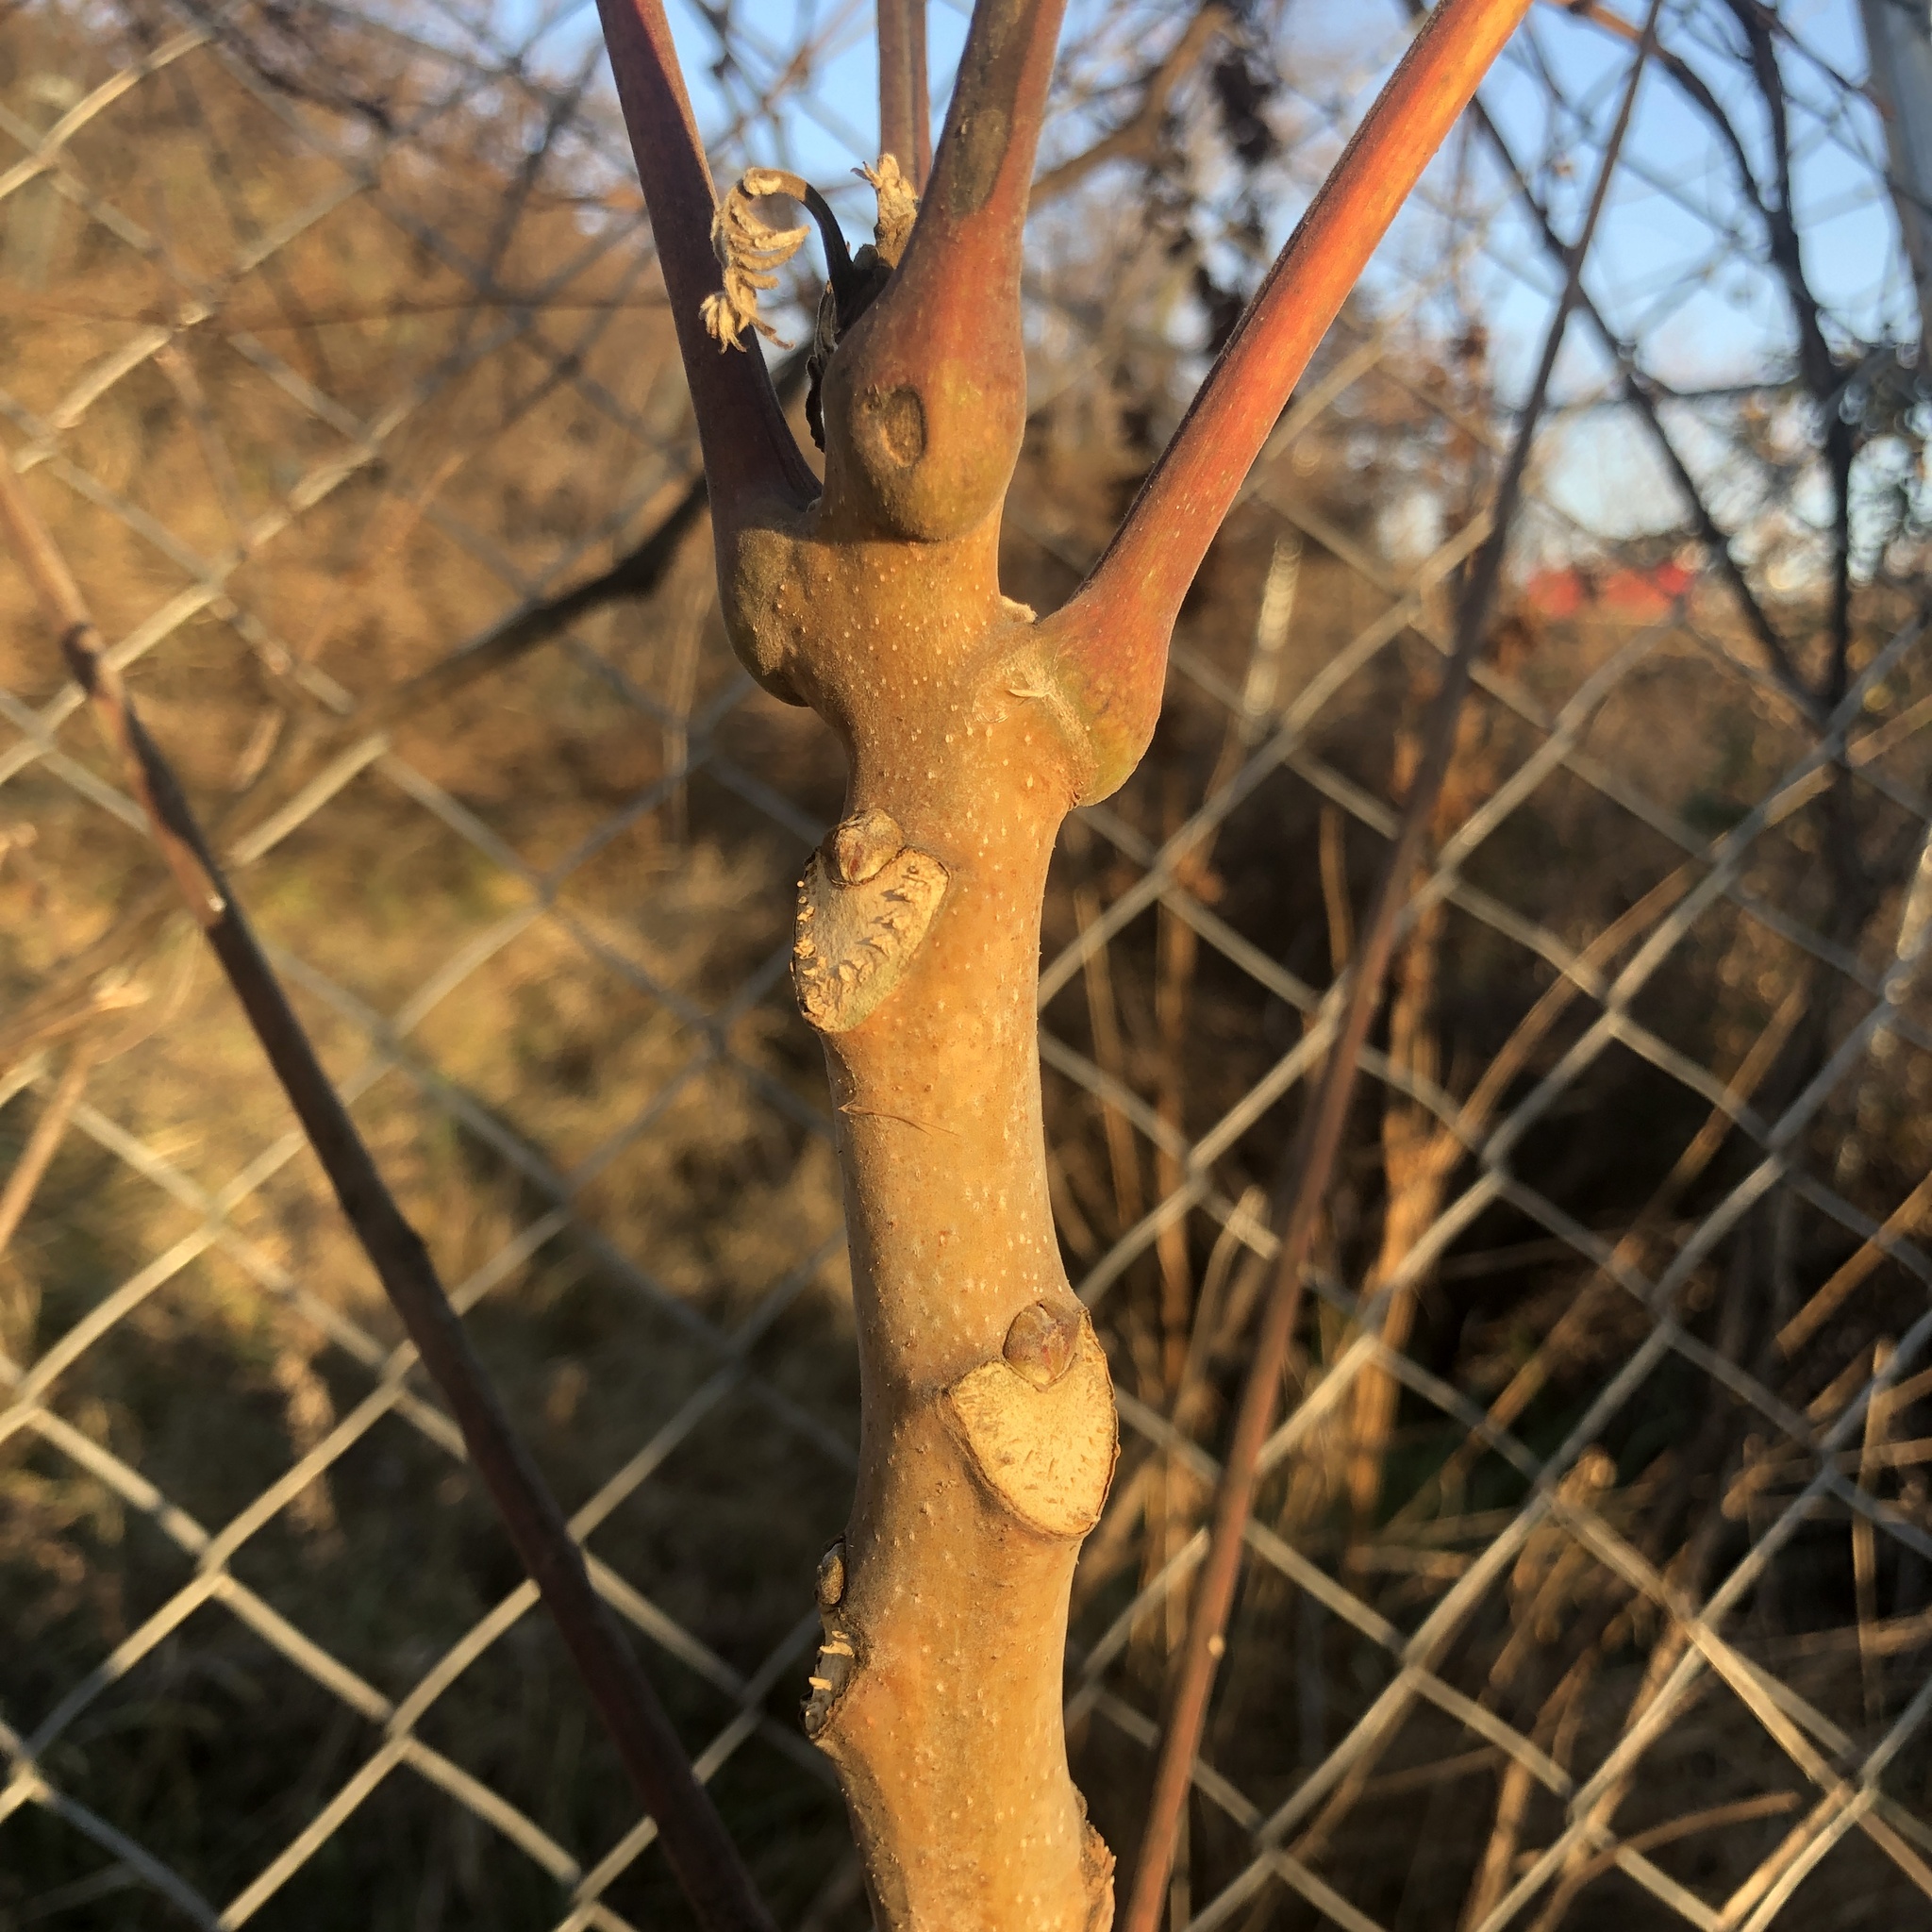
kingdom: Plantae
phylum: Tracheophyta
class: Magnoliopsida
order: Sapindales
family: Simaroubaceae
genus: Ailanthus
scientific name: Ailanthus altissima
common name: Tree-of-heaven
